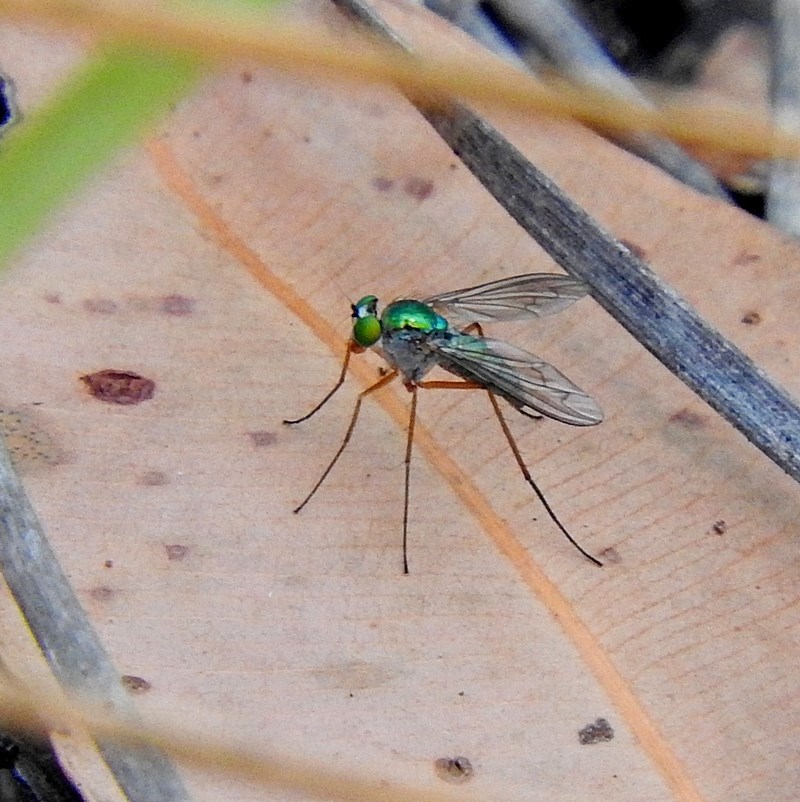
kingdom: Animalia
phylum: Arthropoda
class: Insecta
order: Diptera
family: Dolichopodidae
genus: Heteropsilopus
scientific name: Heteropsilopus
